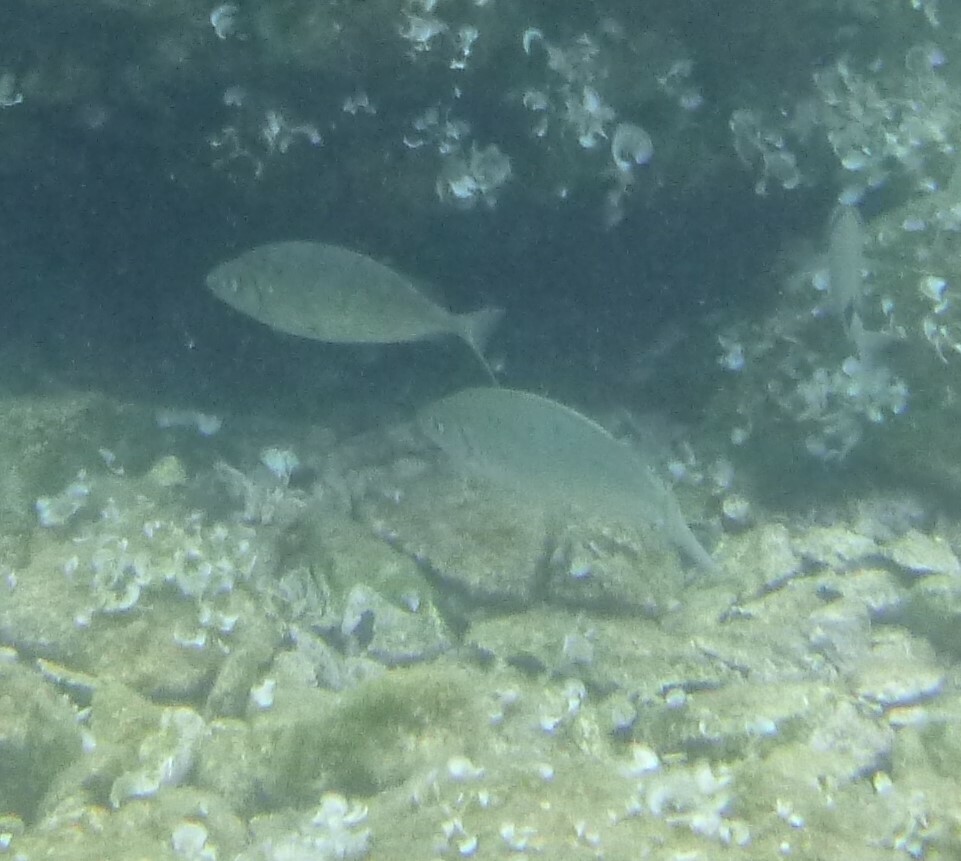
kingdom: Animalia
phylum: Chordata
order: Perciformes
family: Siganidae
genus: Siganus
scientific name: Siganus rivulatus
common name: Marbled spinefoot
